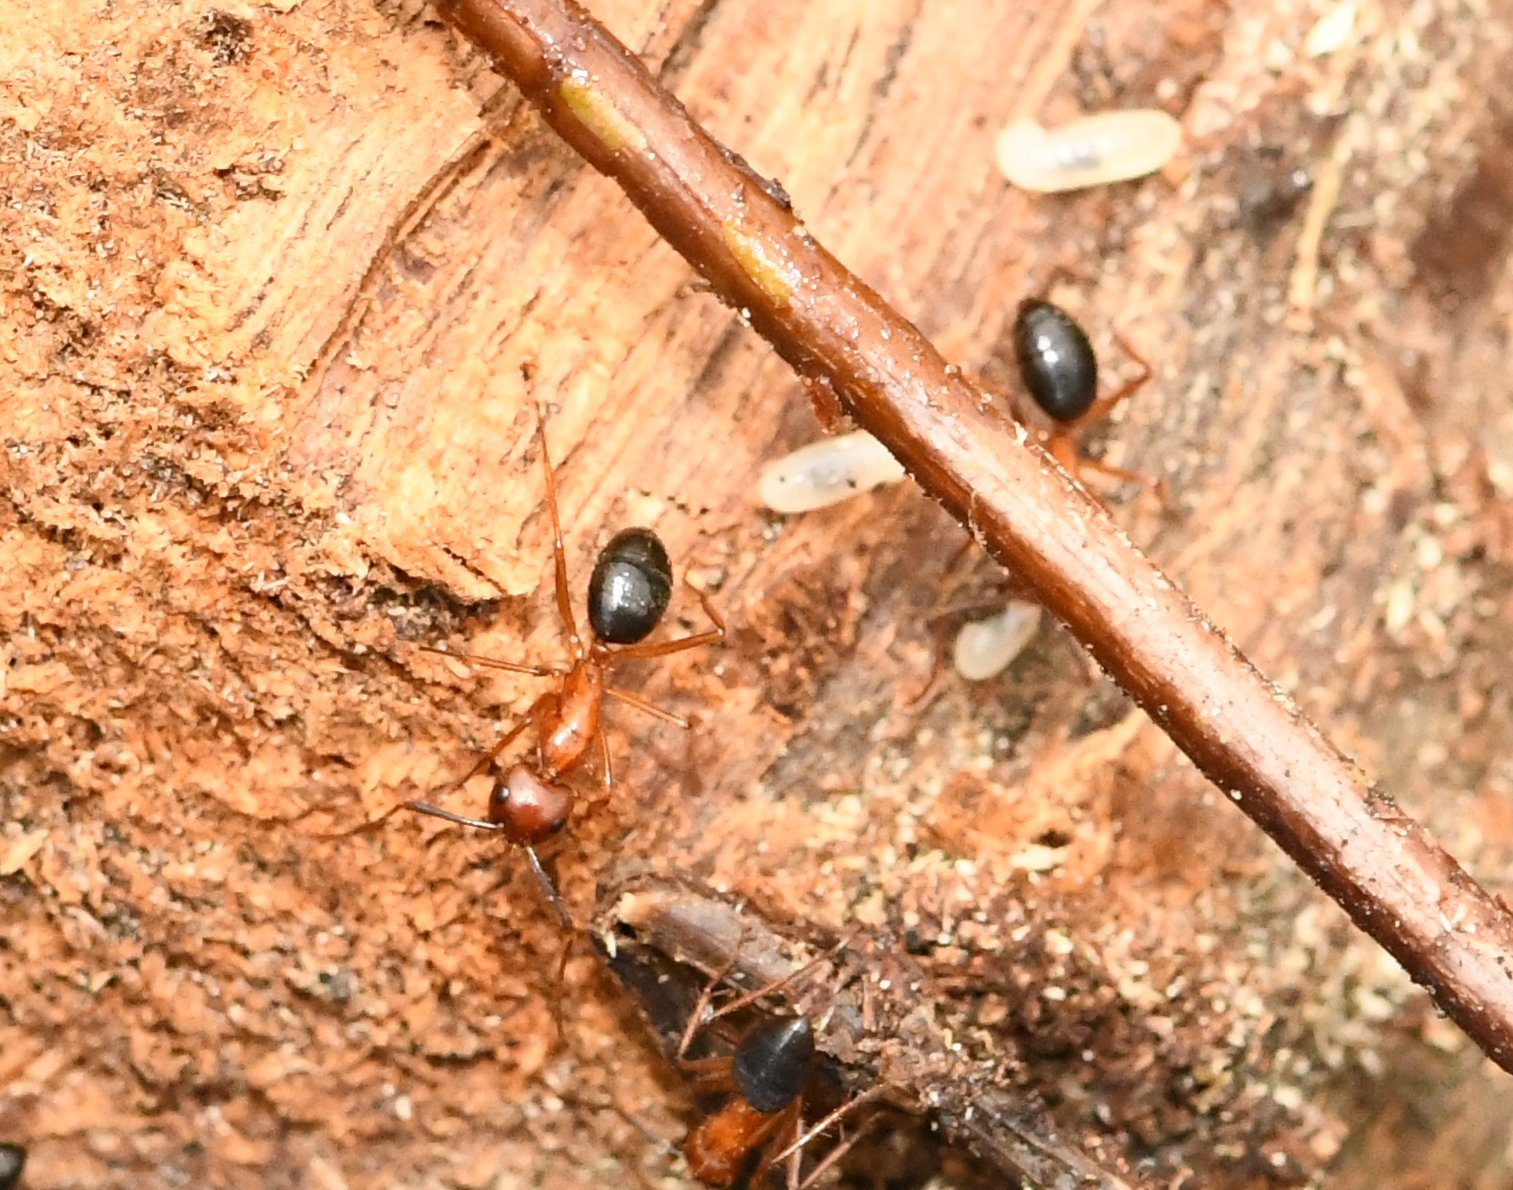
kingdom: Animalia
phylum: Arthropoda
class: Insecta
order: Hymenoptera
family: Formicidae
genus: Camponotus
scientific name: Camponotus floridanus
